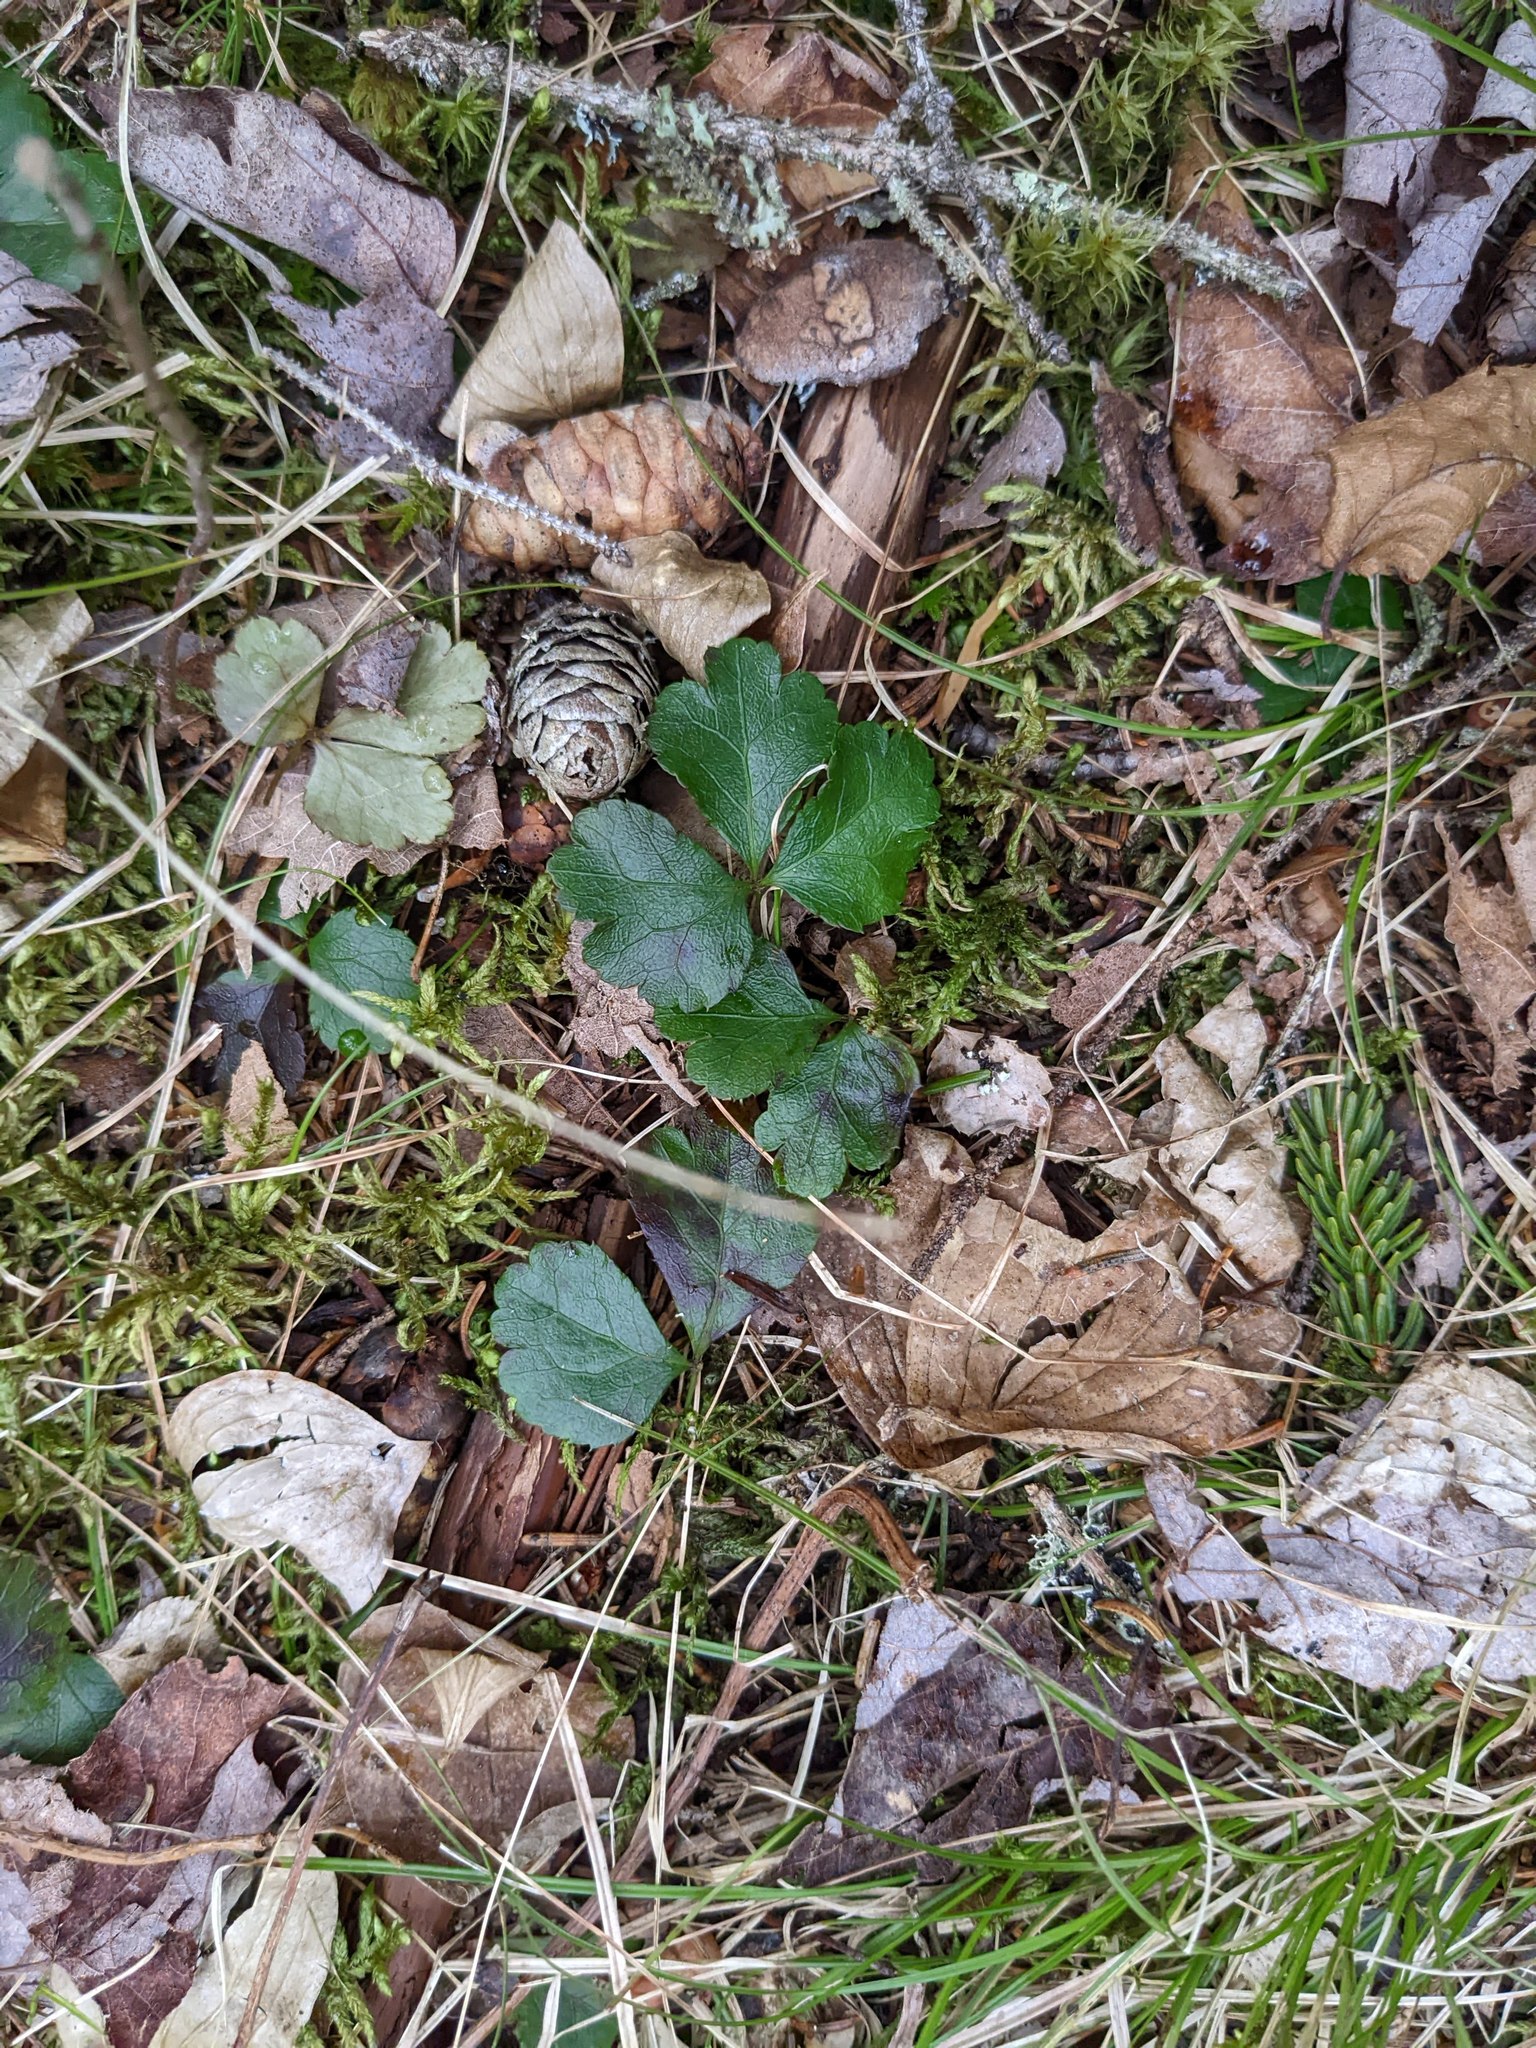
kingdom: Plantae
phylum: Tracheophyta
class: Magnoliopsida
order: Ranunculales
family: Ranunculaceae
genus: Coptis
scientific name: Coptis trifolia
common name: Canker-root
